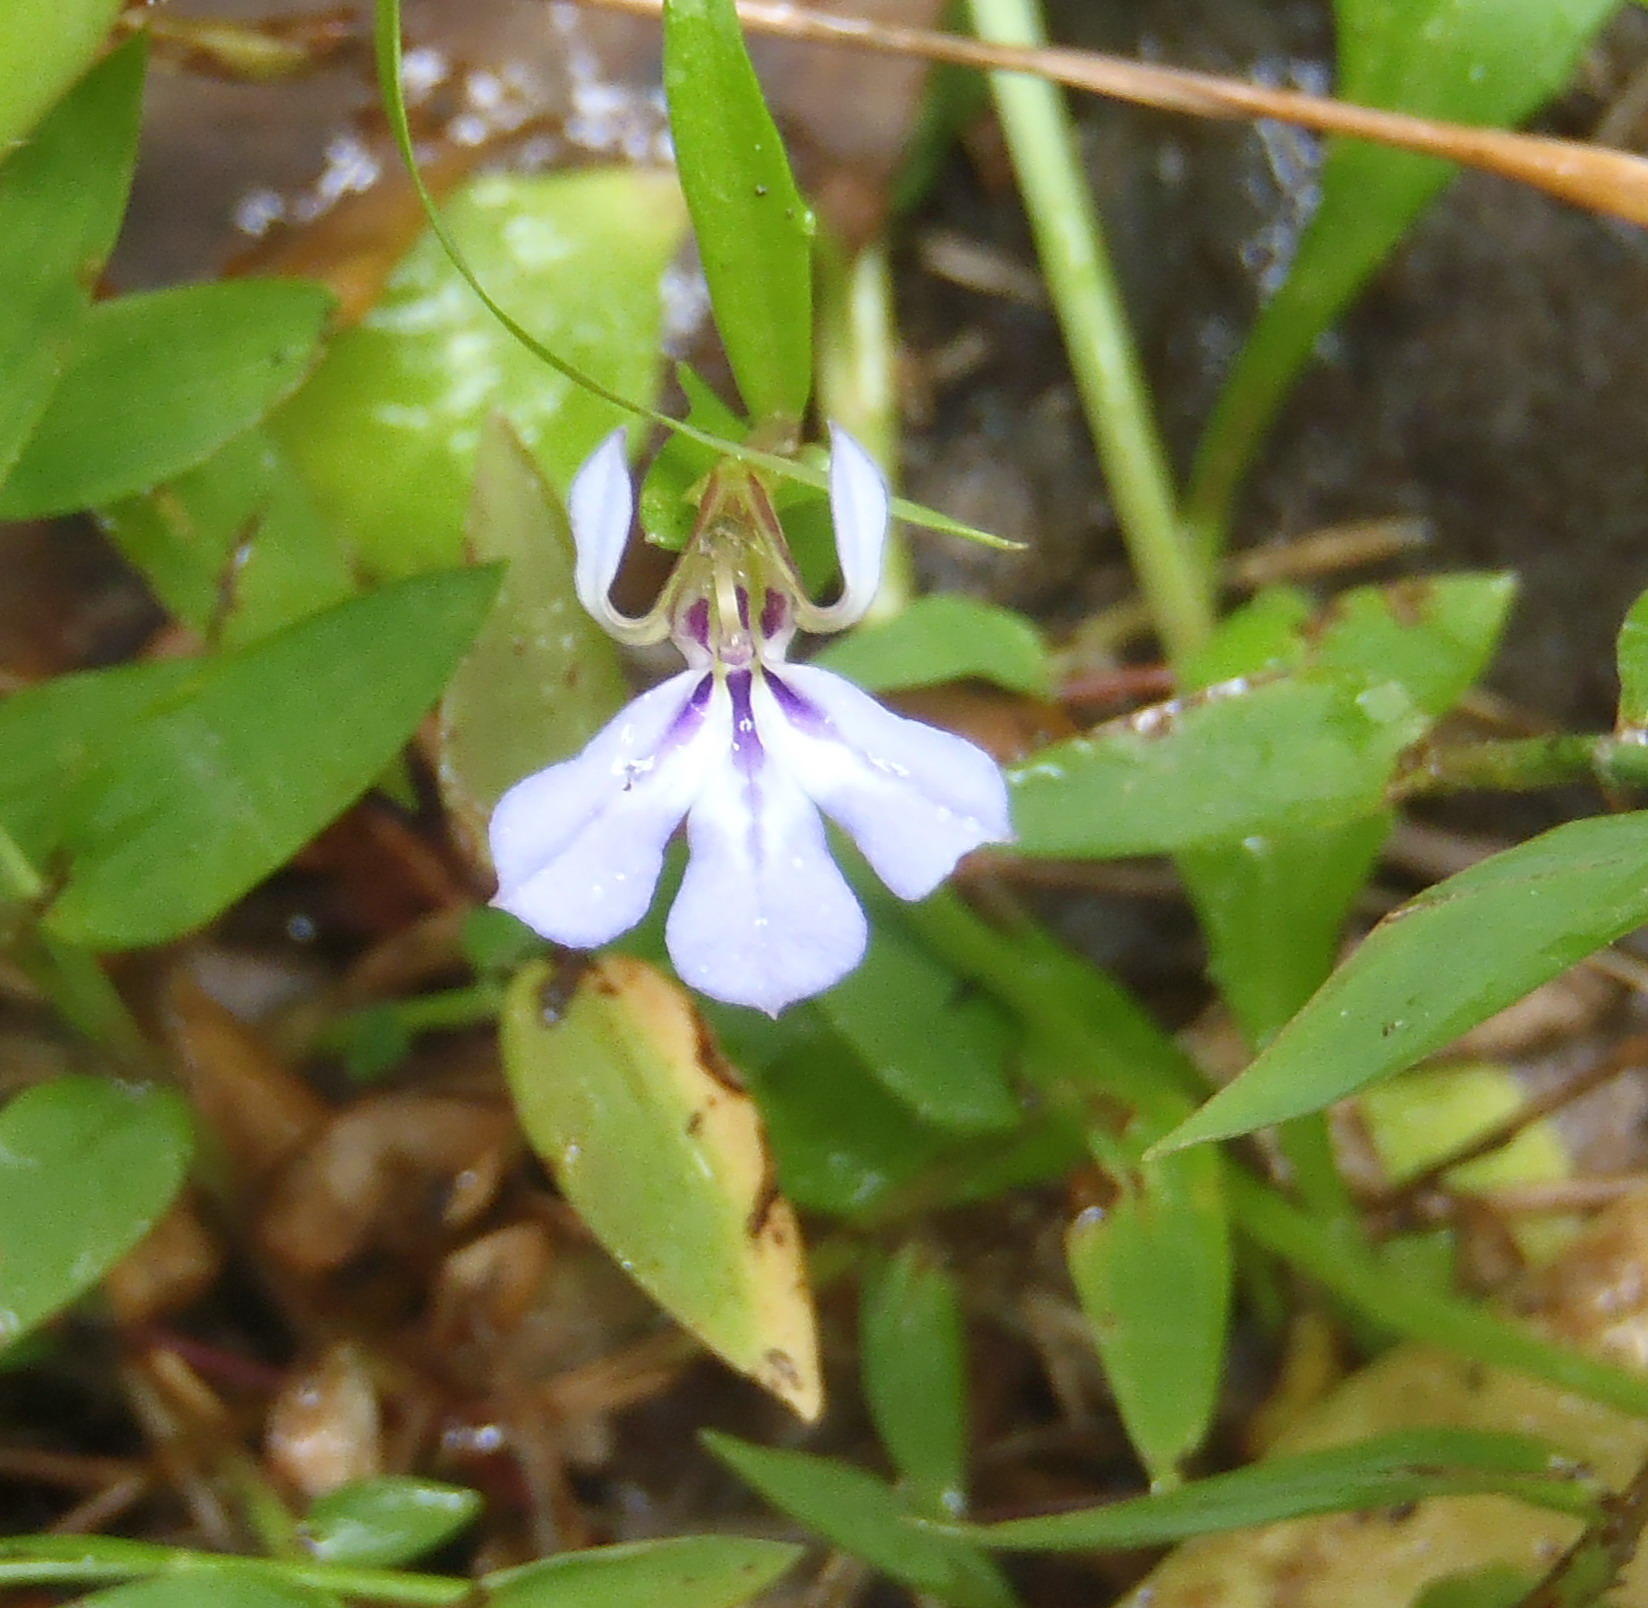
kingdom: Plantae
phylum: Tracheophyta
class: Magnoliopsida
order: Asterales
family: Campanulaceae
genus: Lobelia
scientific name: Lobelia anceps
